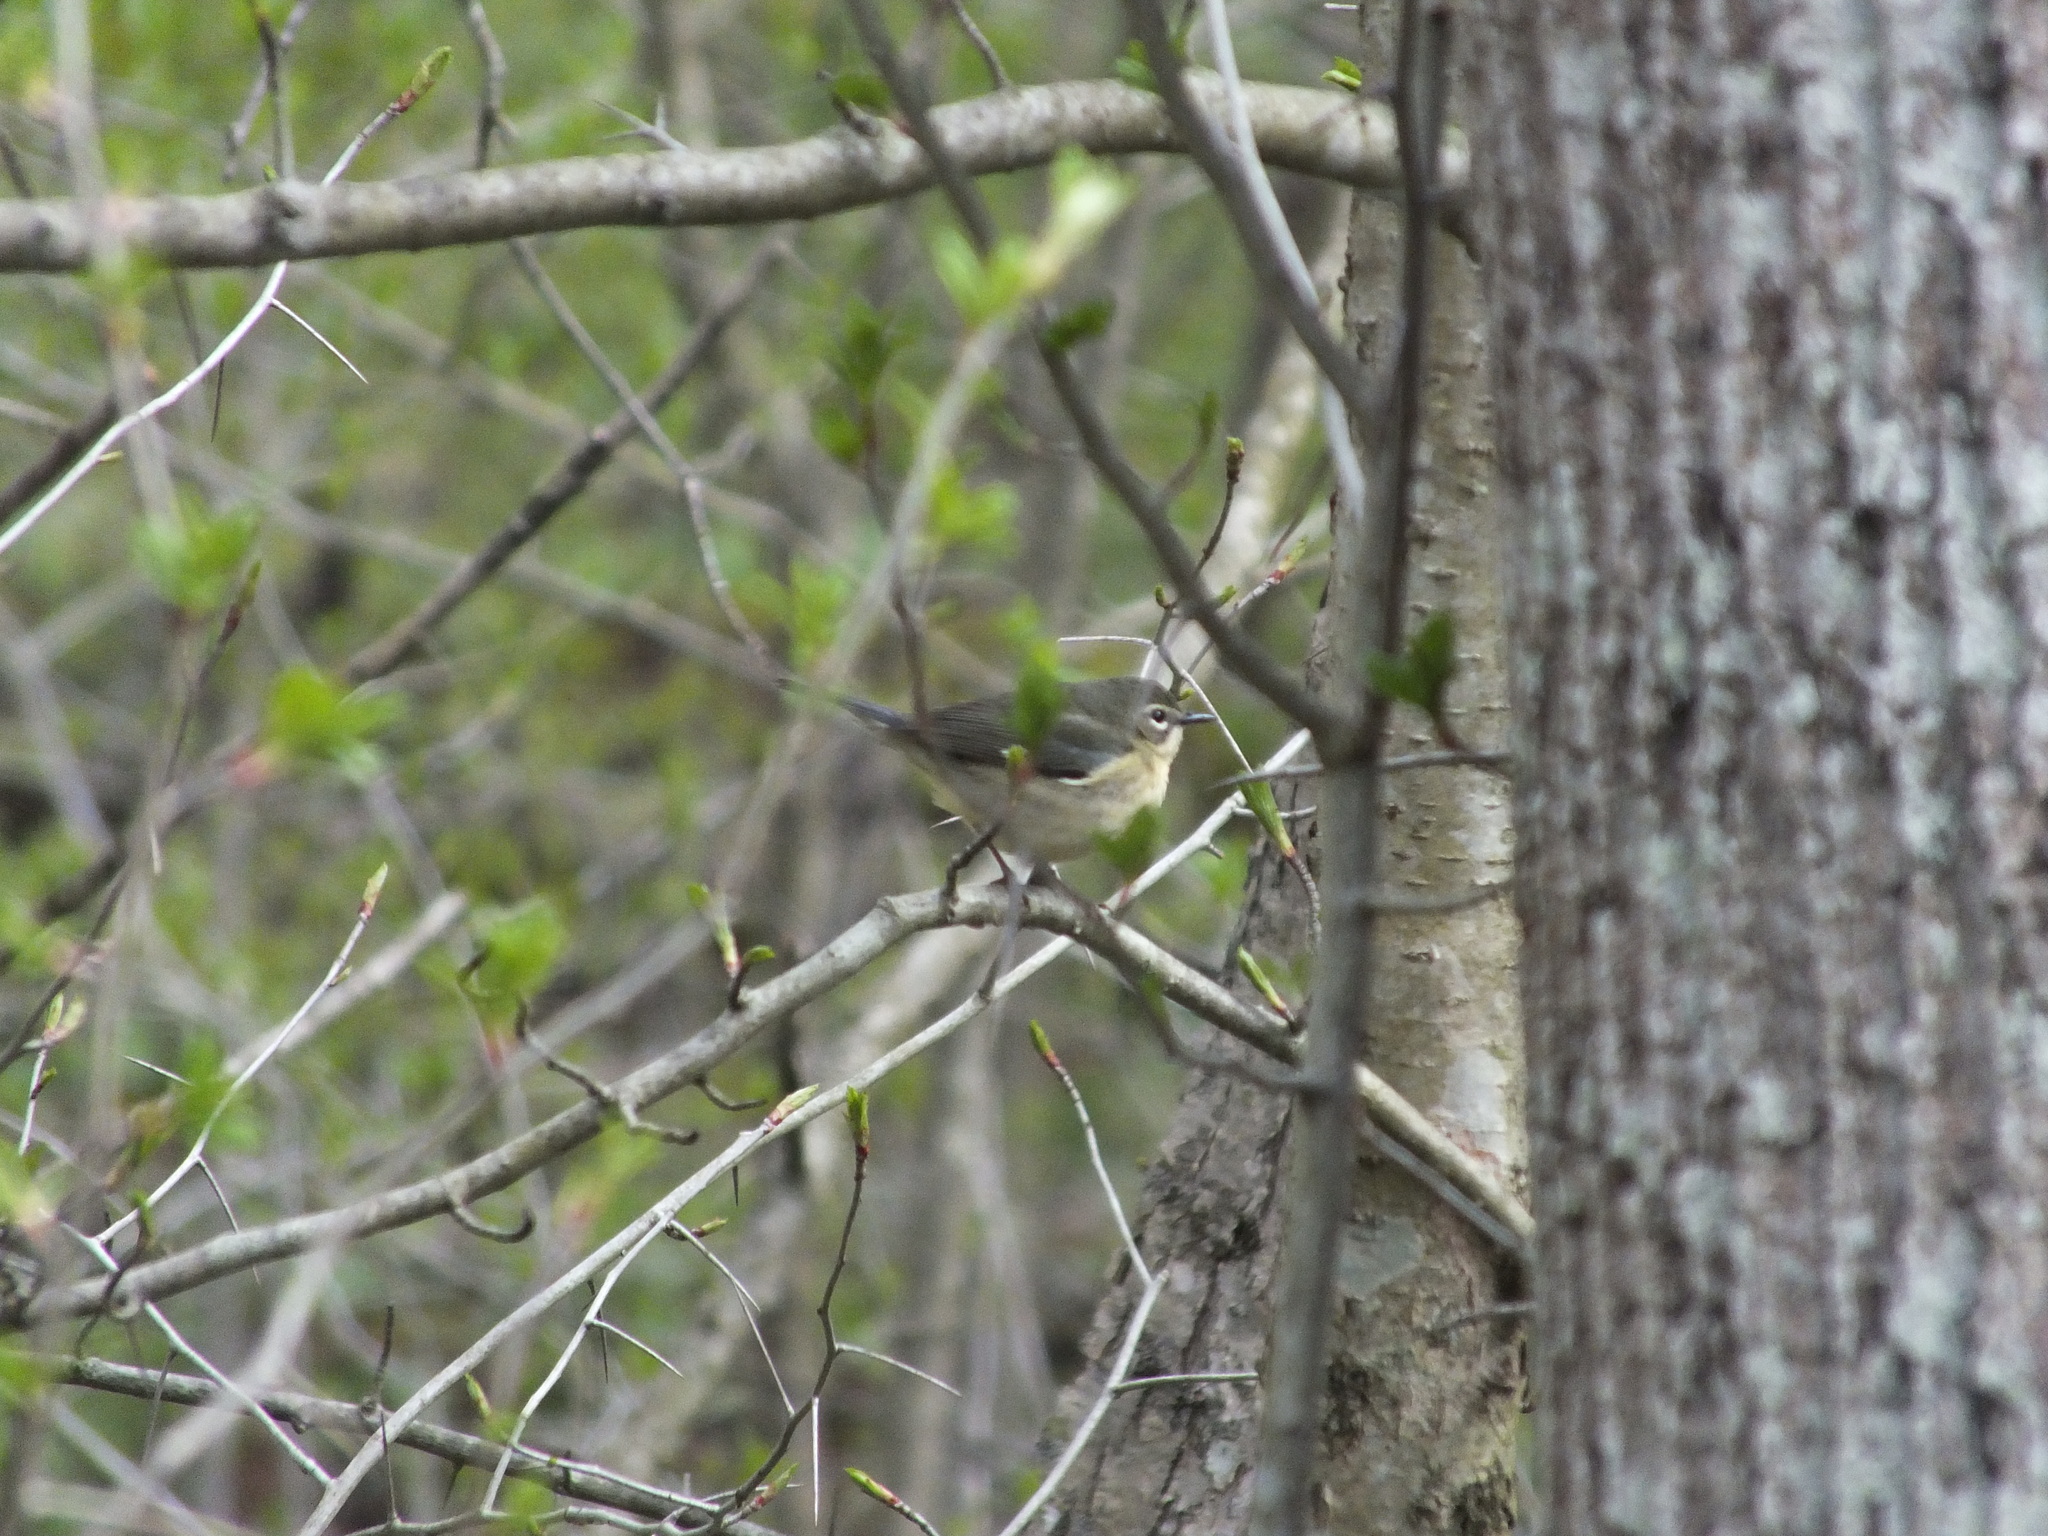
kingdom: Animalia
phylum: Chordata
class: Aves
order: Passeriformes
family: Parulidae
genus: Setophaga
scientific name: Setophaga caerulescens
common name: Black-throated blue warbler
